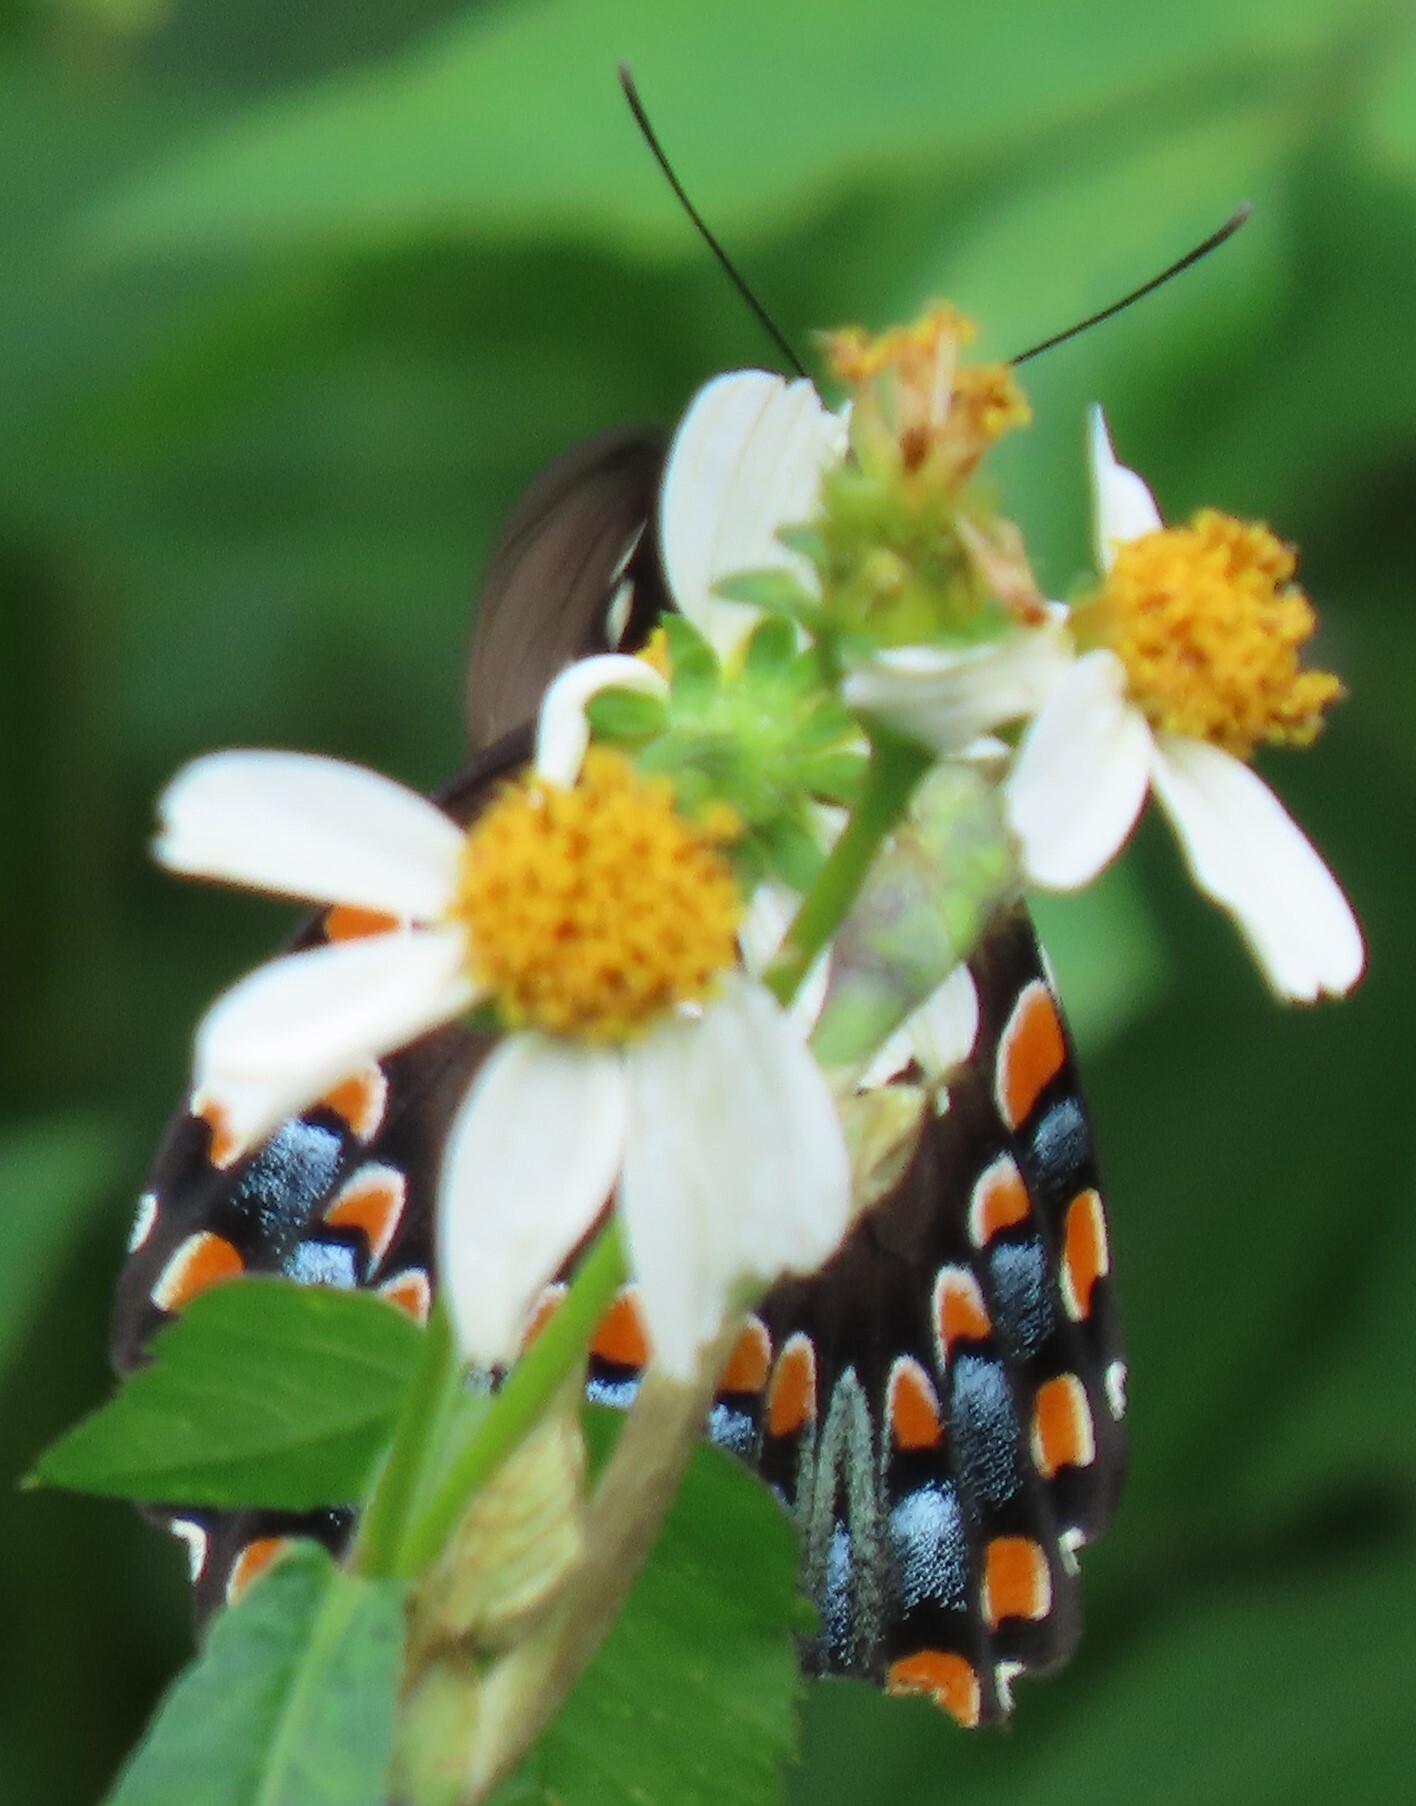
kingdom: Animalia
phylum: Arthropoda
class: Insecta
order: Lepidoptera
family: Papilionidae
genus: Papilio
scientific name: Papilio troilus
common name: Spicebush swallowtail
